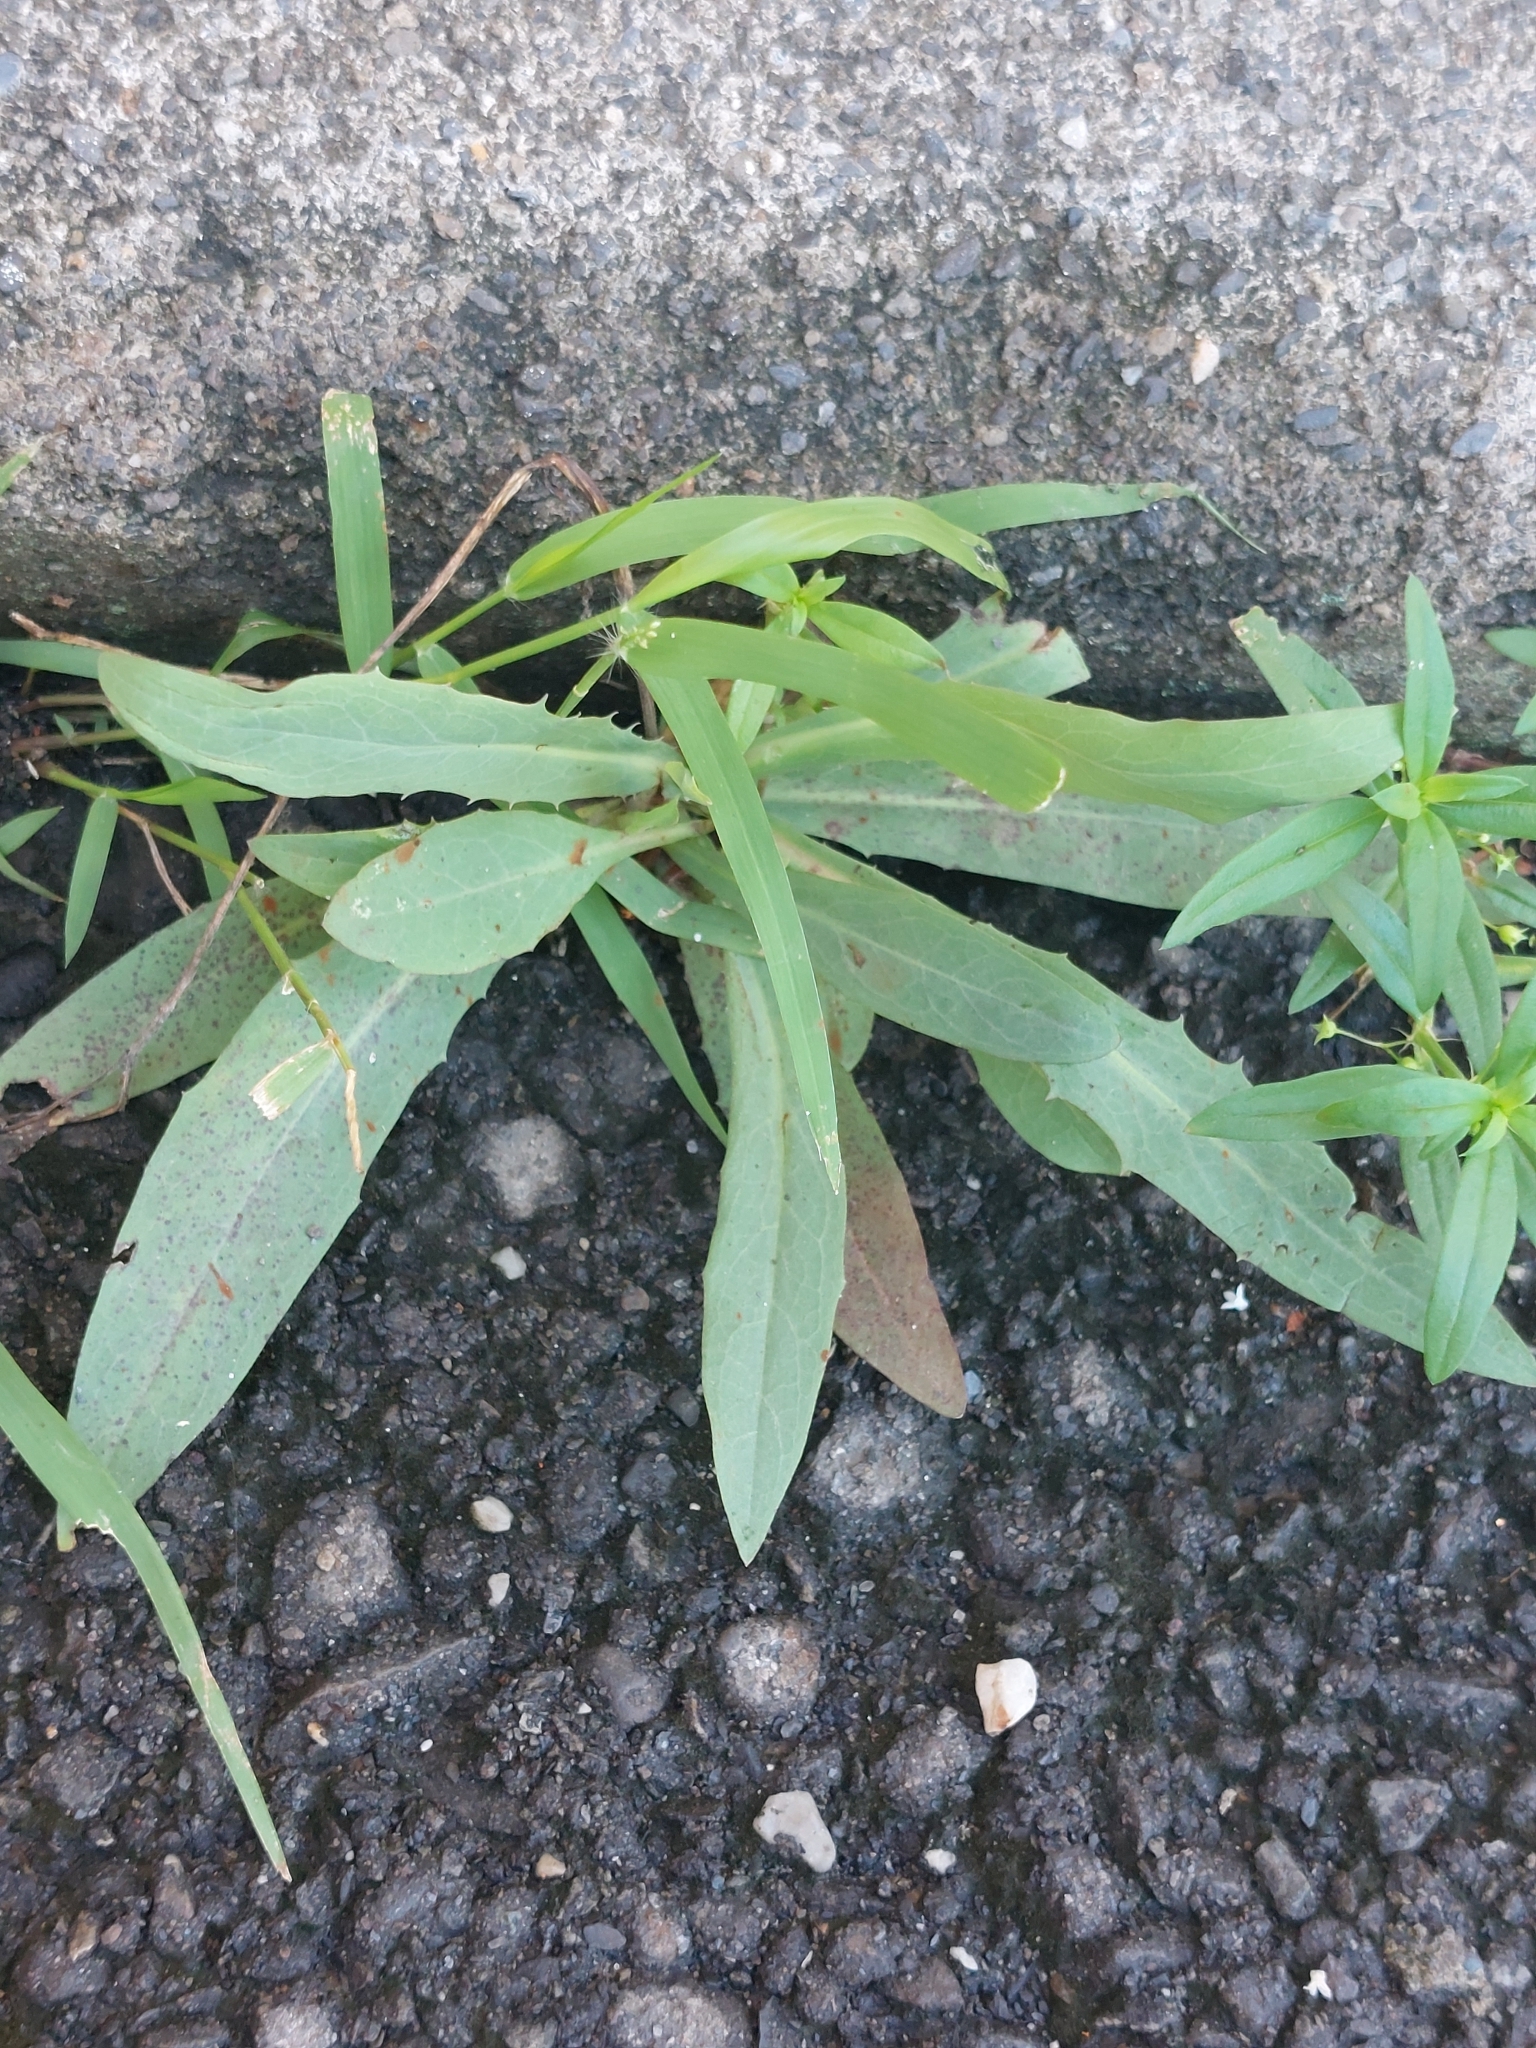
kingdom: Plantae
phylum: Tracheophyta
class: Magnoliopsida
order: Asterales
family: Asteraceae
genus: Ixeris
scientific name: Ixeris chinensis
